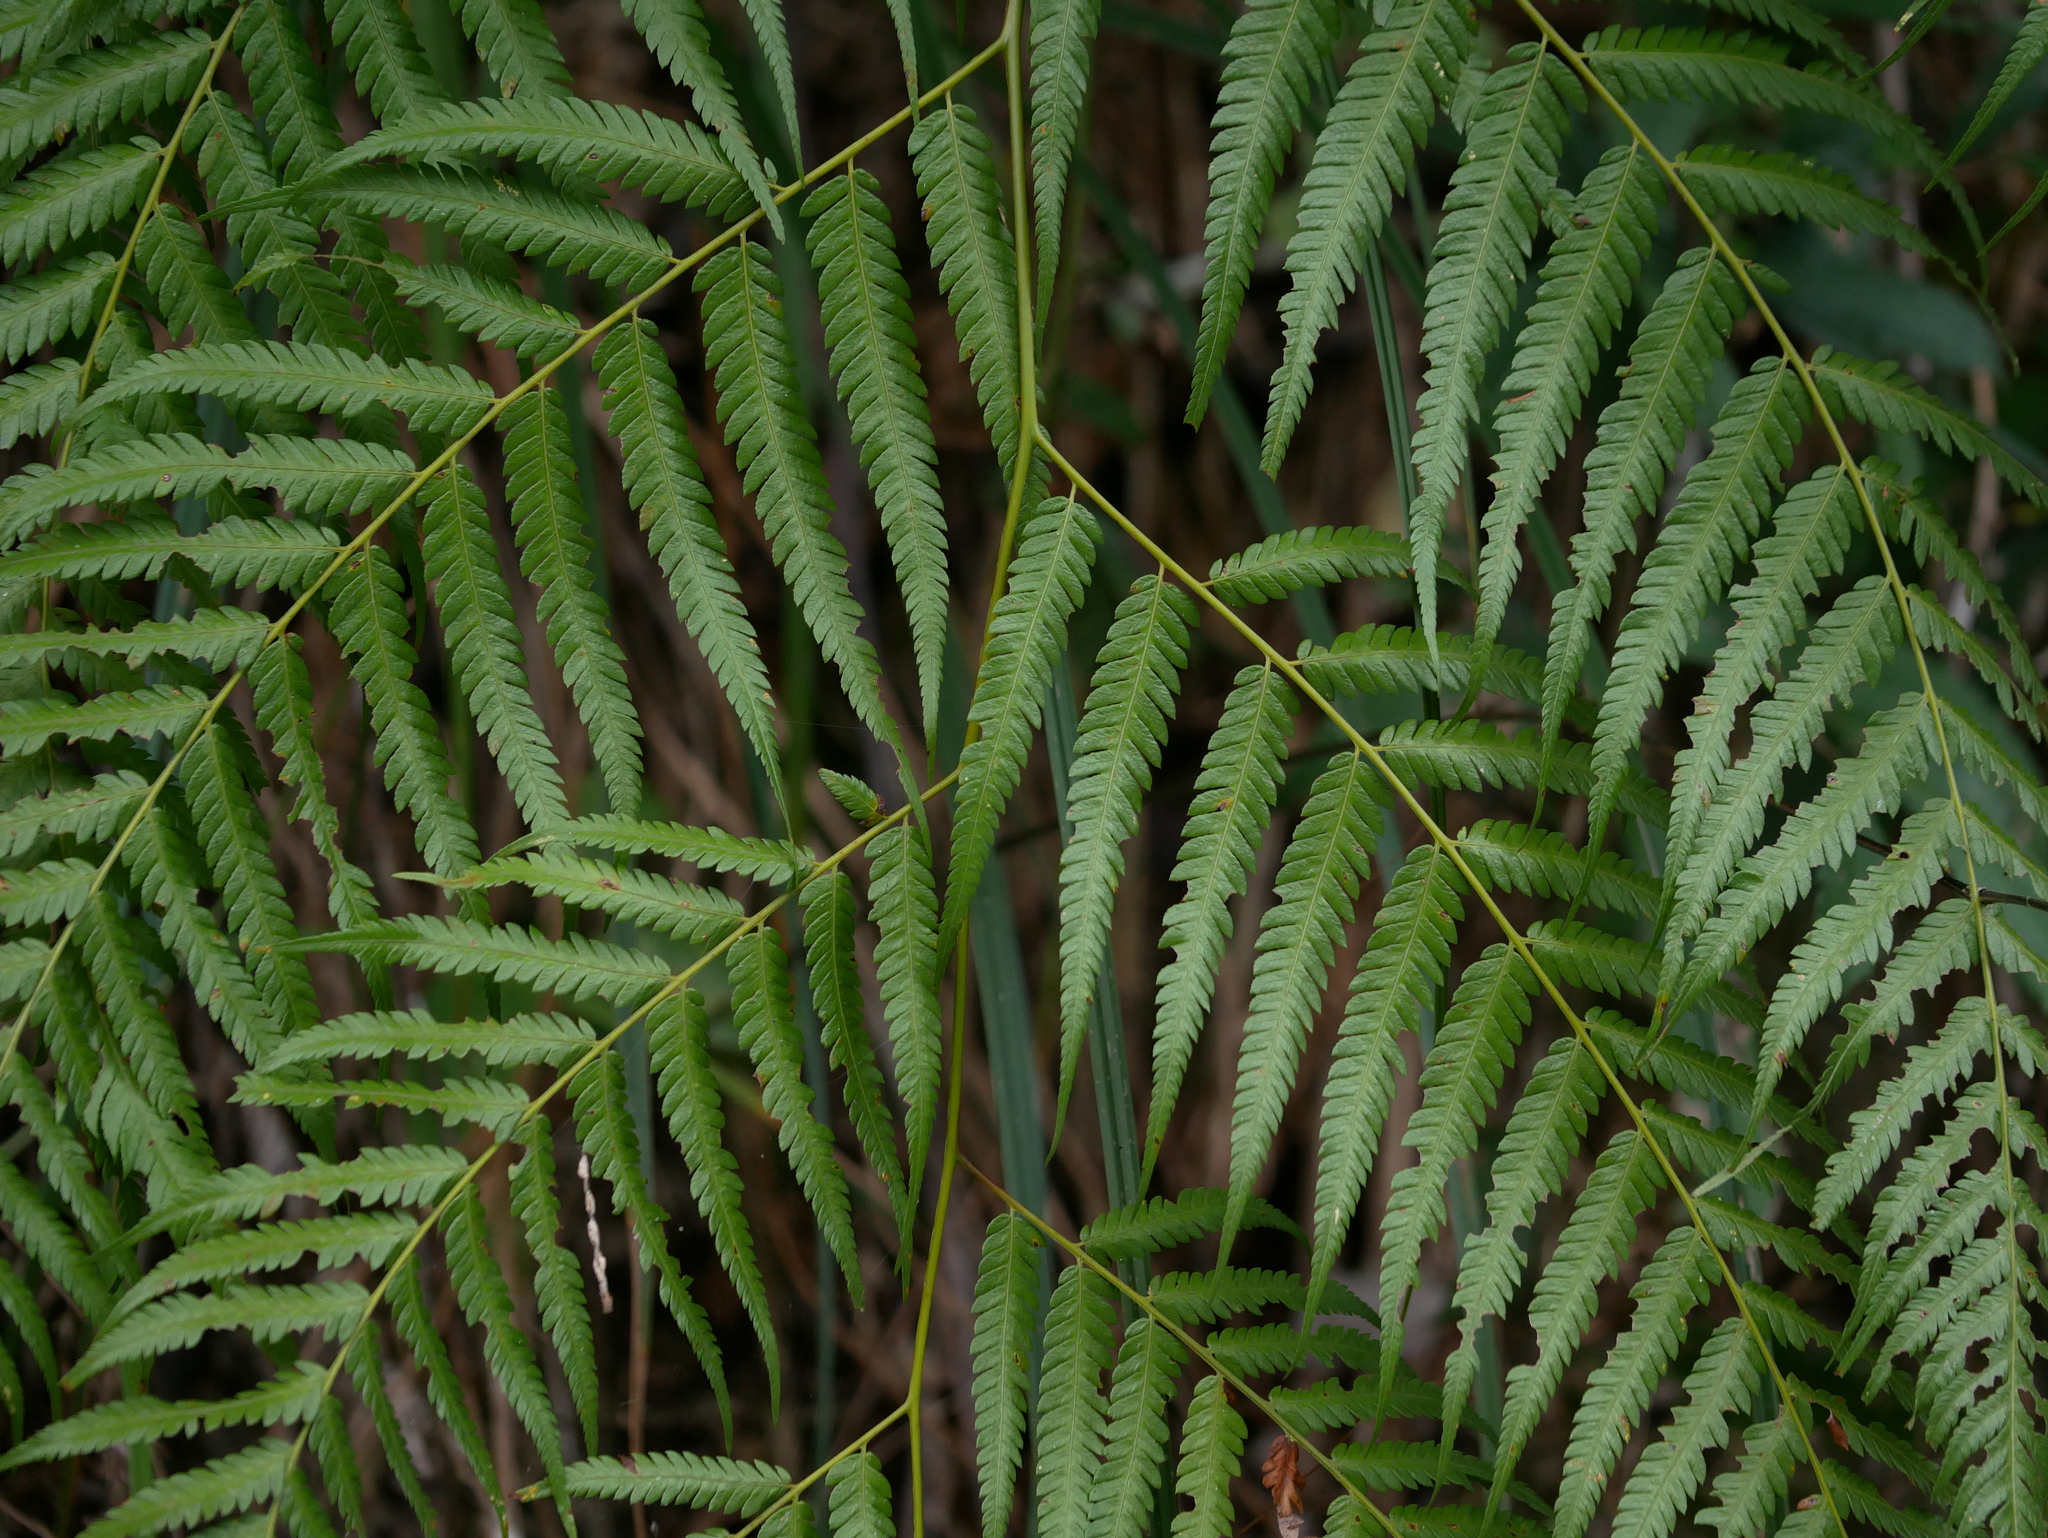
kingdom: Plantae
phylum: Tracheophyta
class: Polypodiopsida
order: Cyatheales
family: Cibotiaceae
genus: Cibotium
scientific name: Cibotium barometz
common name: Scythian-lamb
